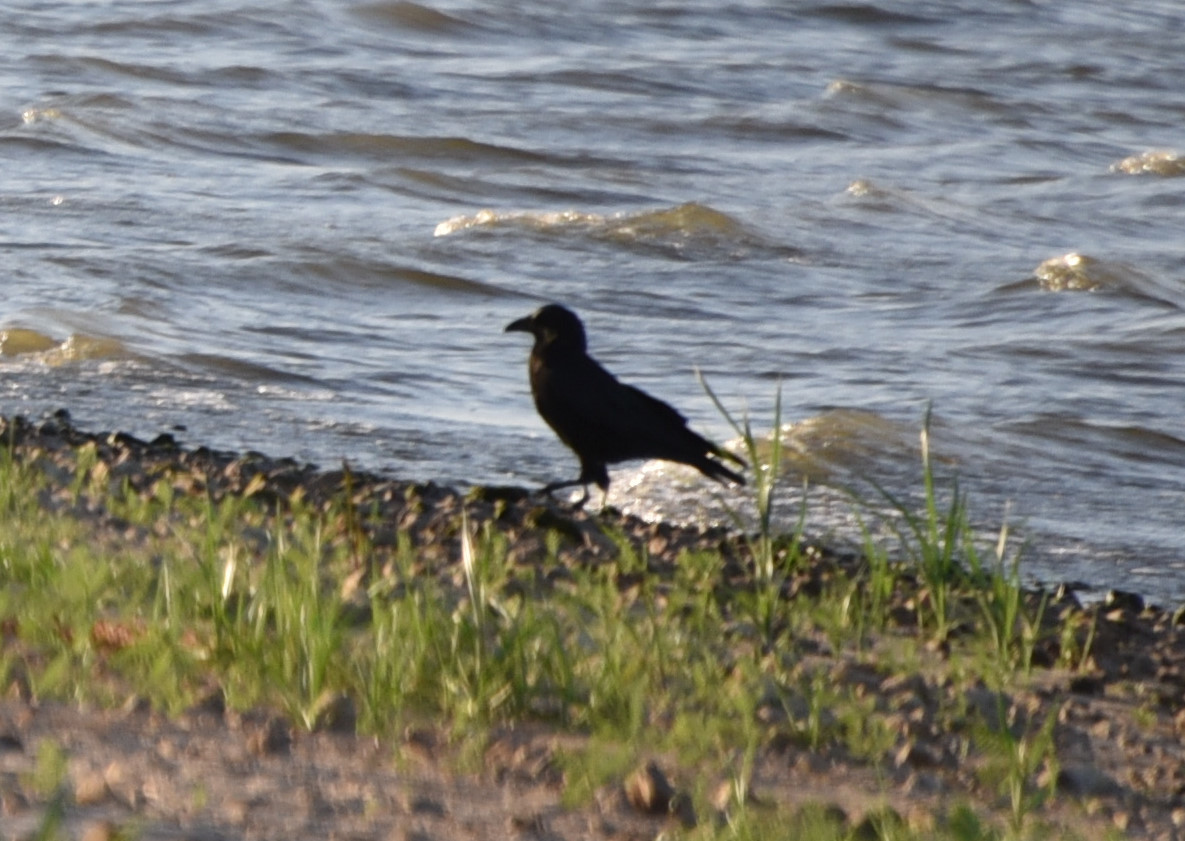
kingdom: Animalia
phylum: Chordata
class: Aves
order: Passeriformes
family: Corvidae
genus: Corvus
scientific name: Corvus brachyrhynchos
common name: American crow
